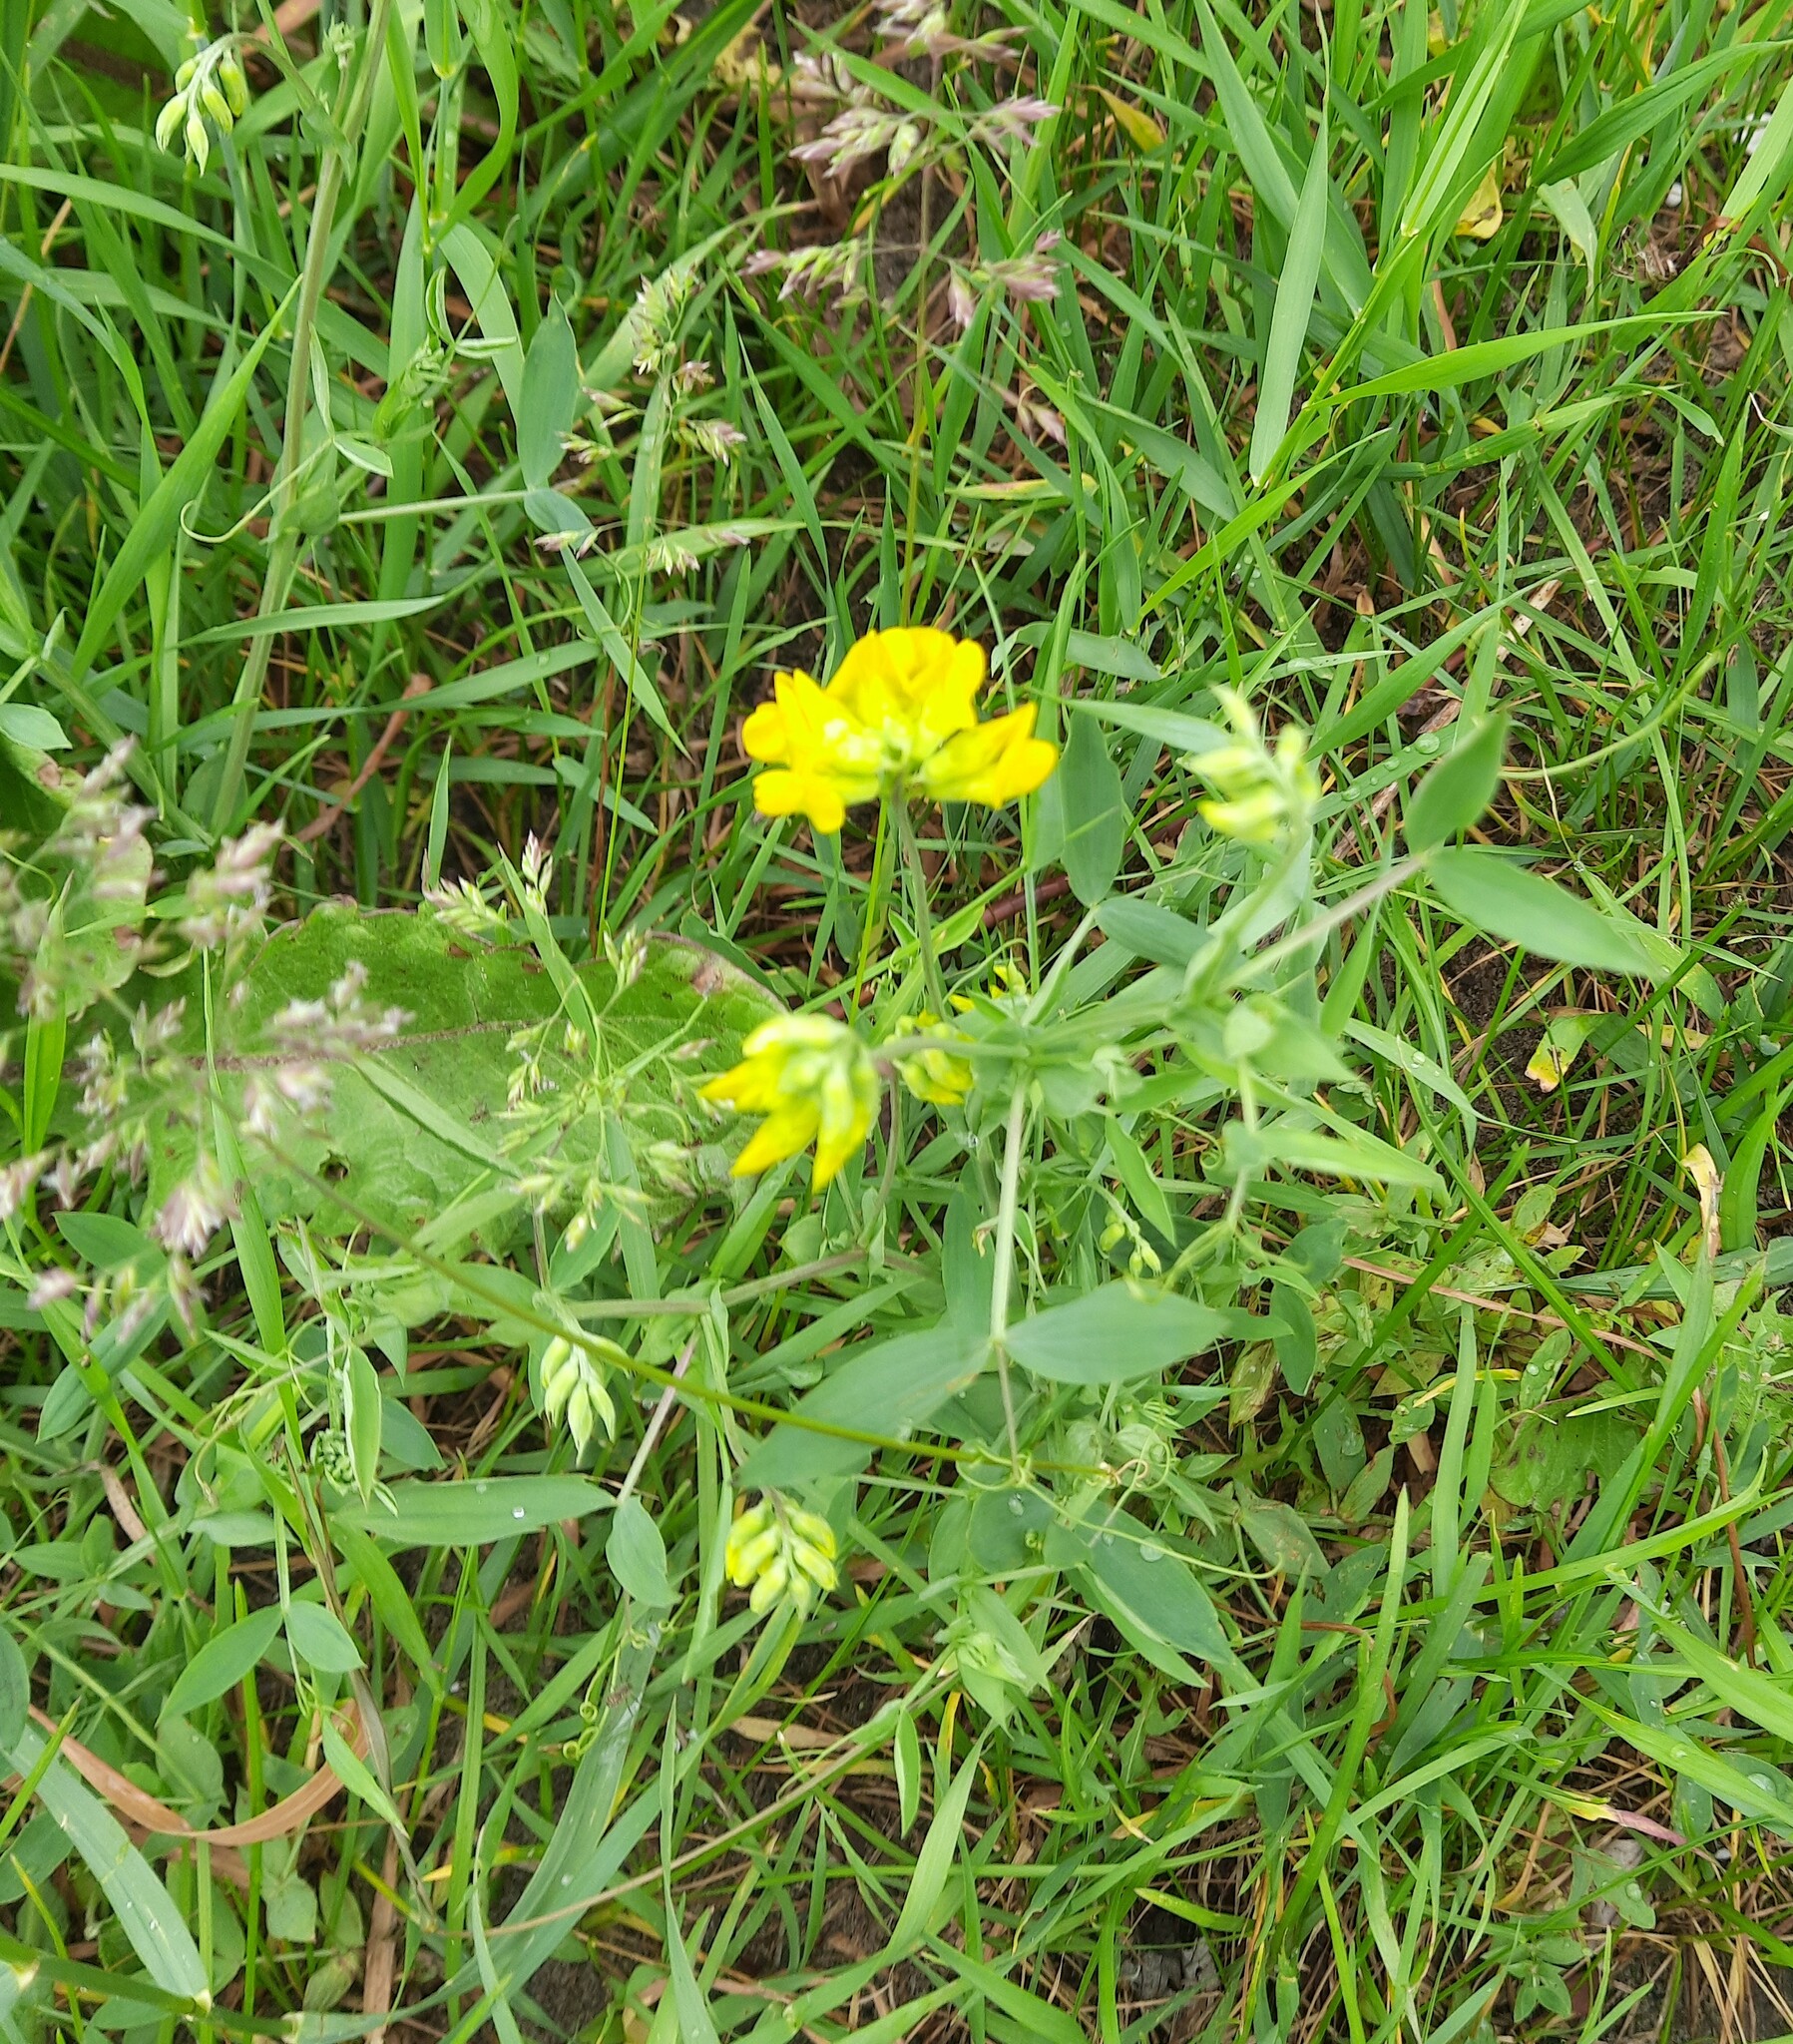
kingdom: Plantae
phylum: Tracheophyta
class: Magnoliopsida
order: Fabales
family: Fabaceae
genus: Lathyrus
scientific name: Lathyrus pratensis
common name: Meadow vetchling
